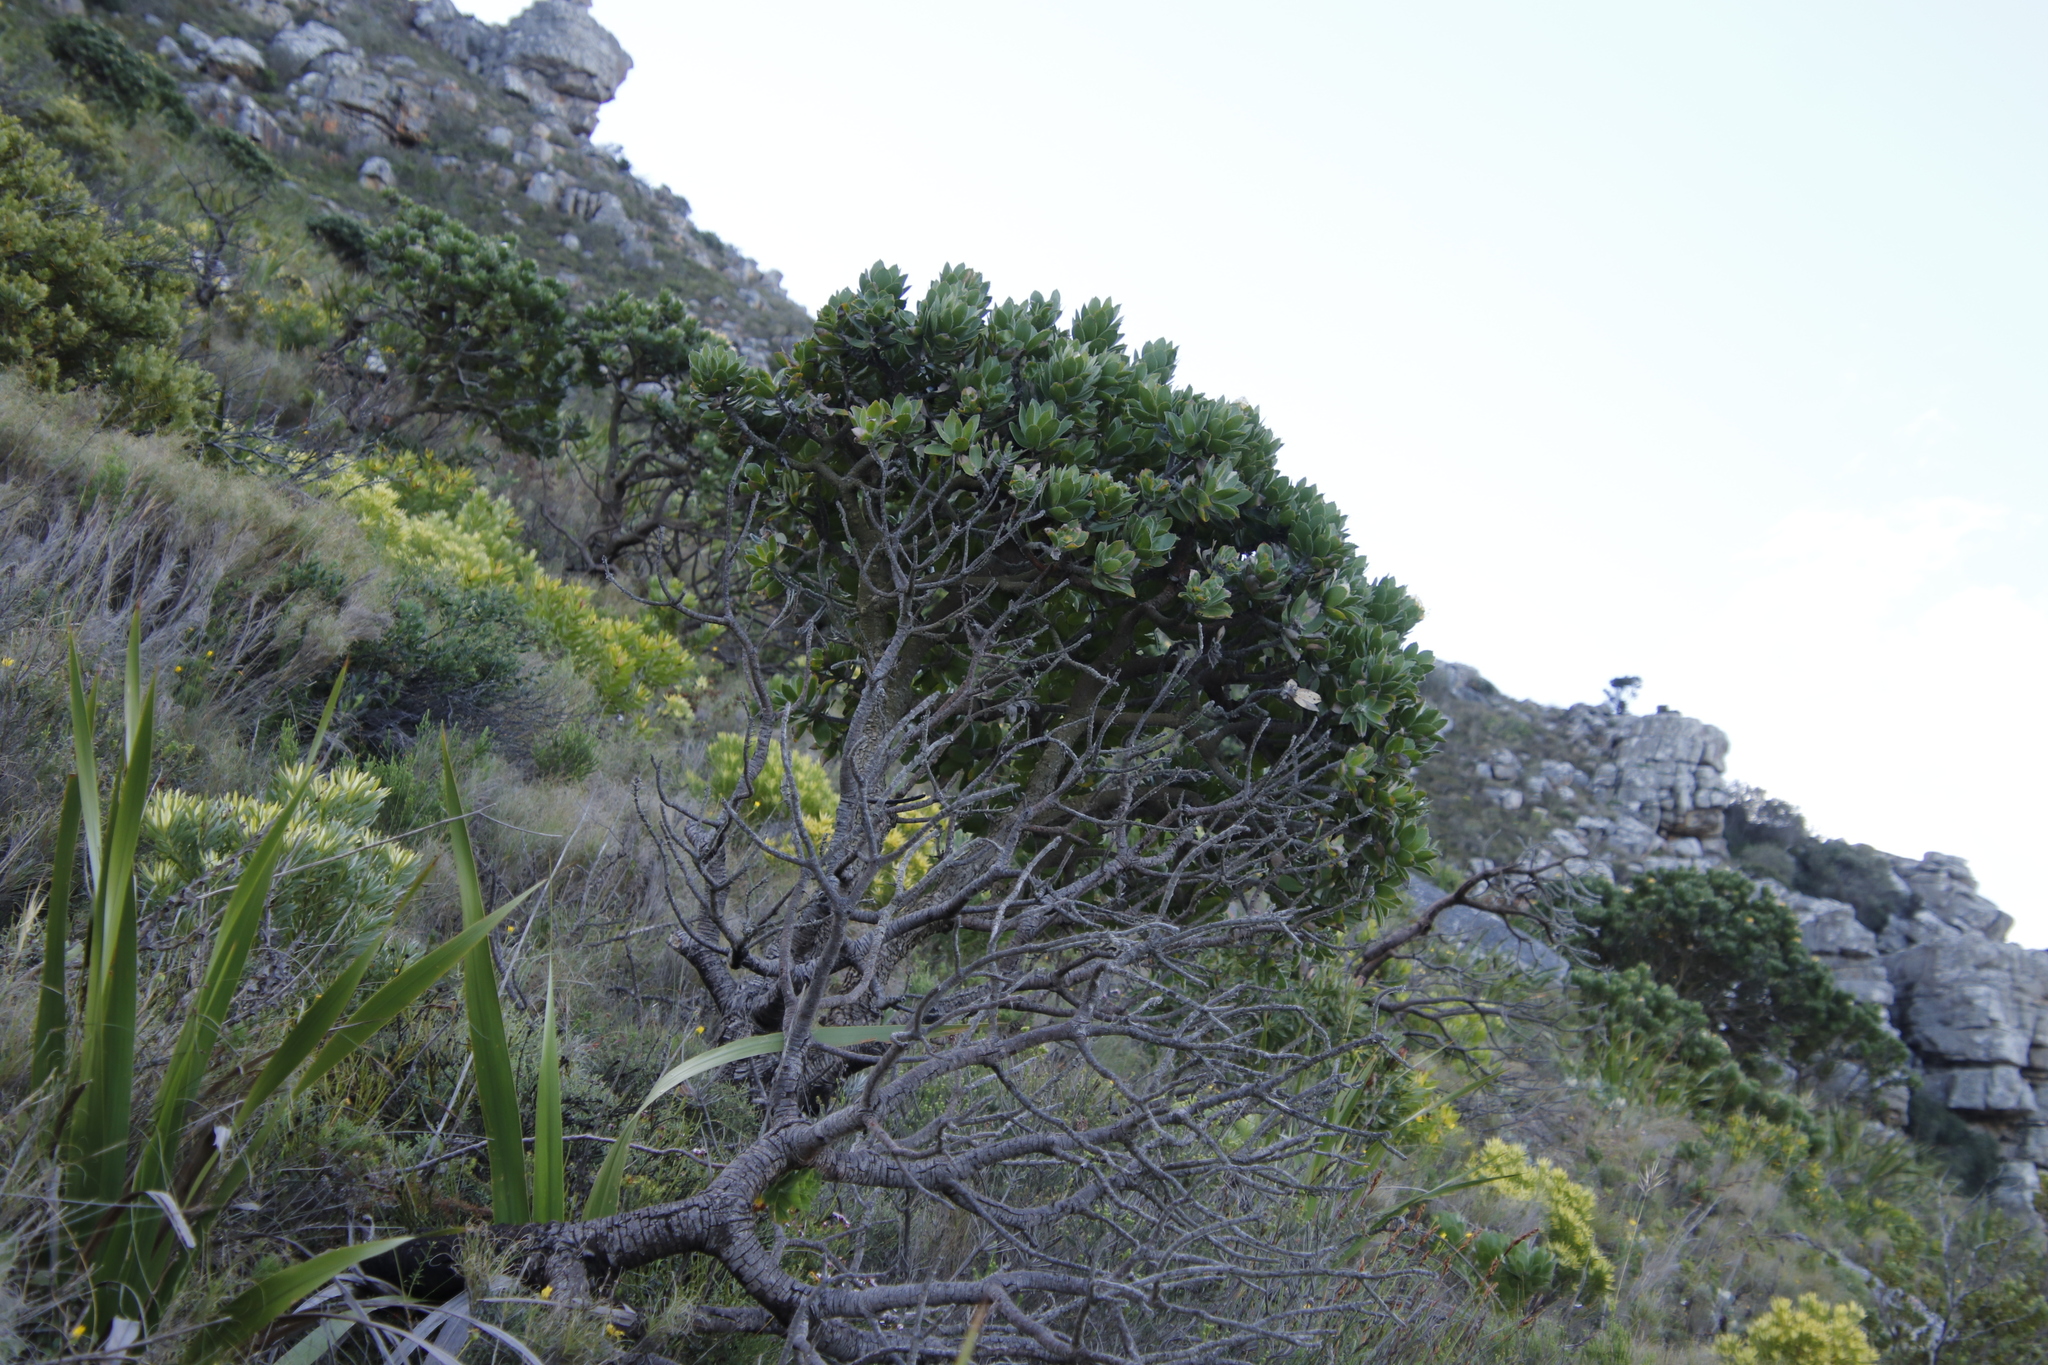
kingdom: Plantae
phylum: Tracheophyta
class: Magnoliopsida
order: Proteales
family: Proteaceae
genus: Leucospermum
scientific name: Leucospermum conocarpodendron
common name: Tree pincushion
